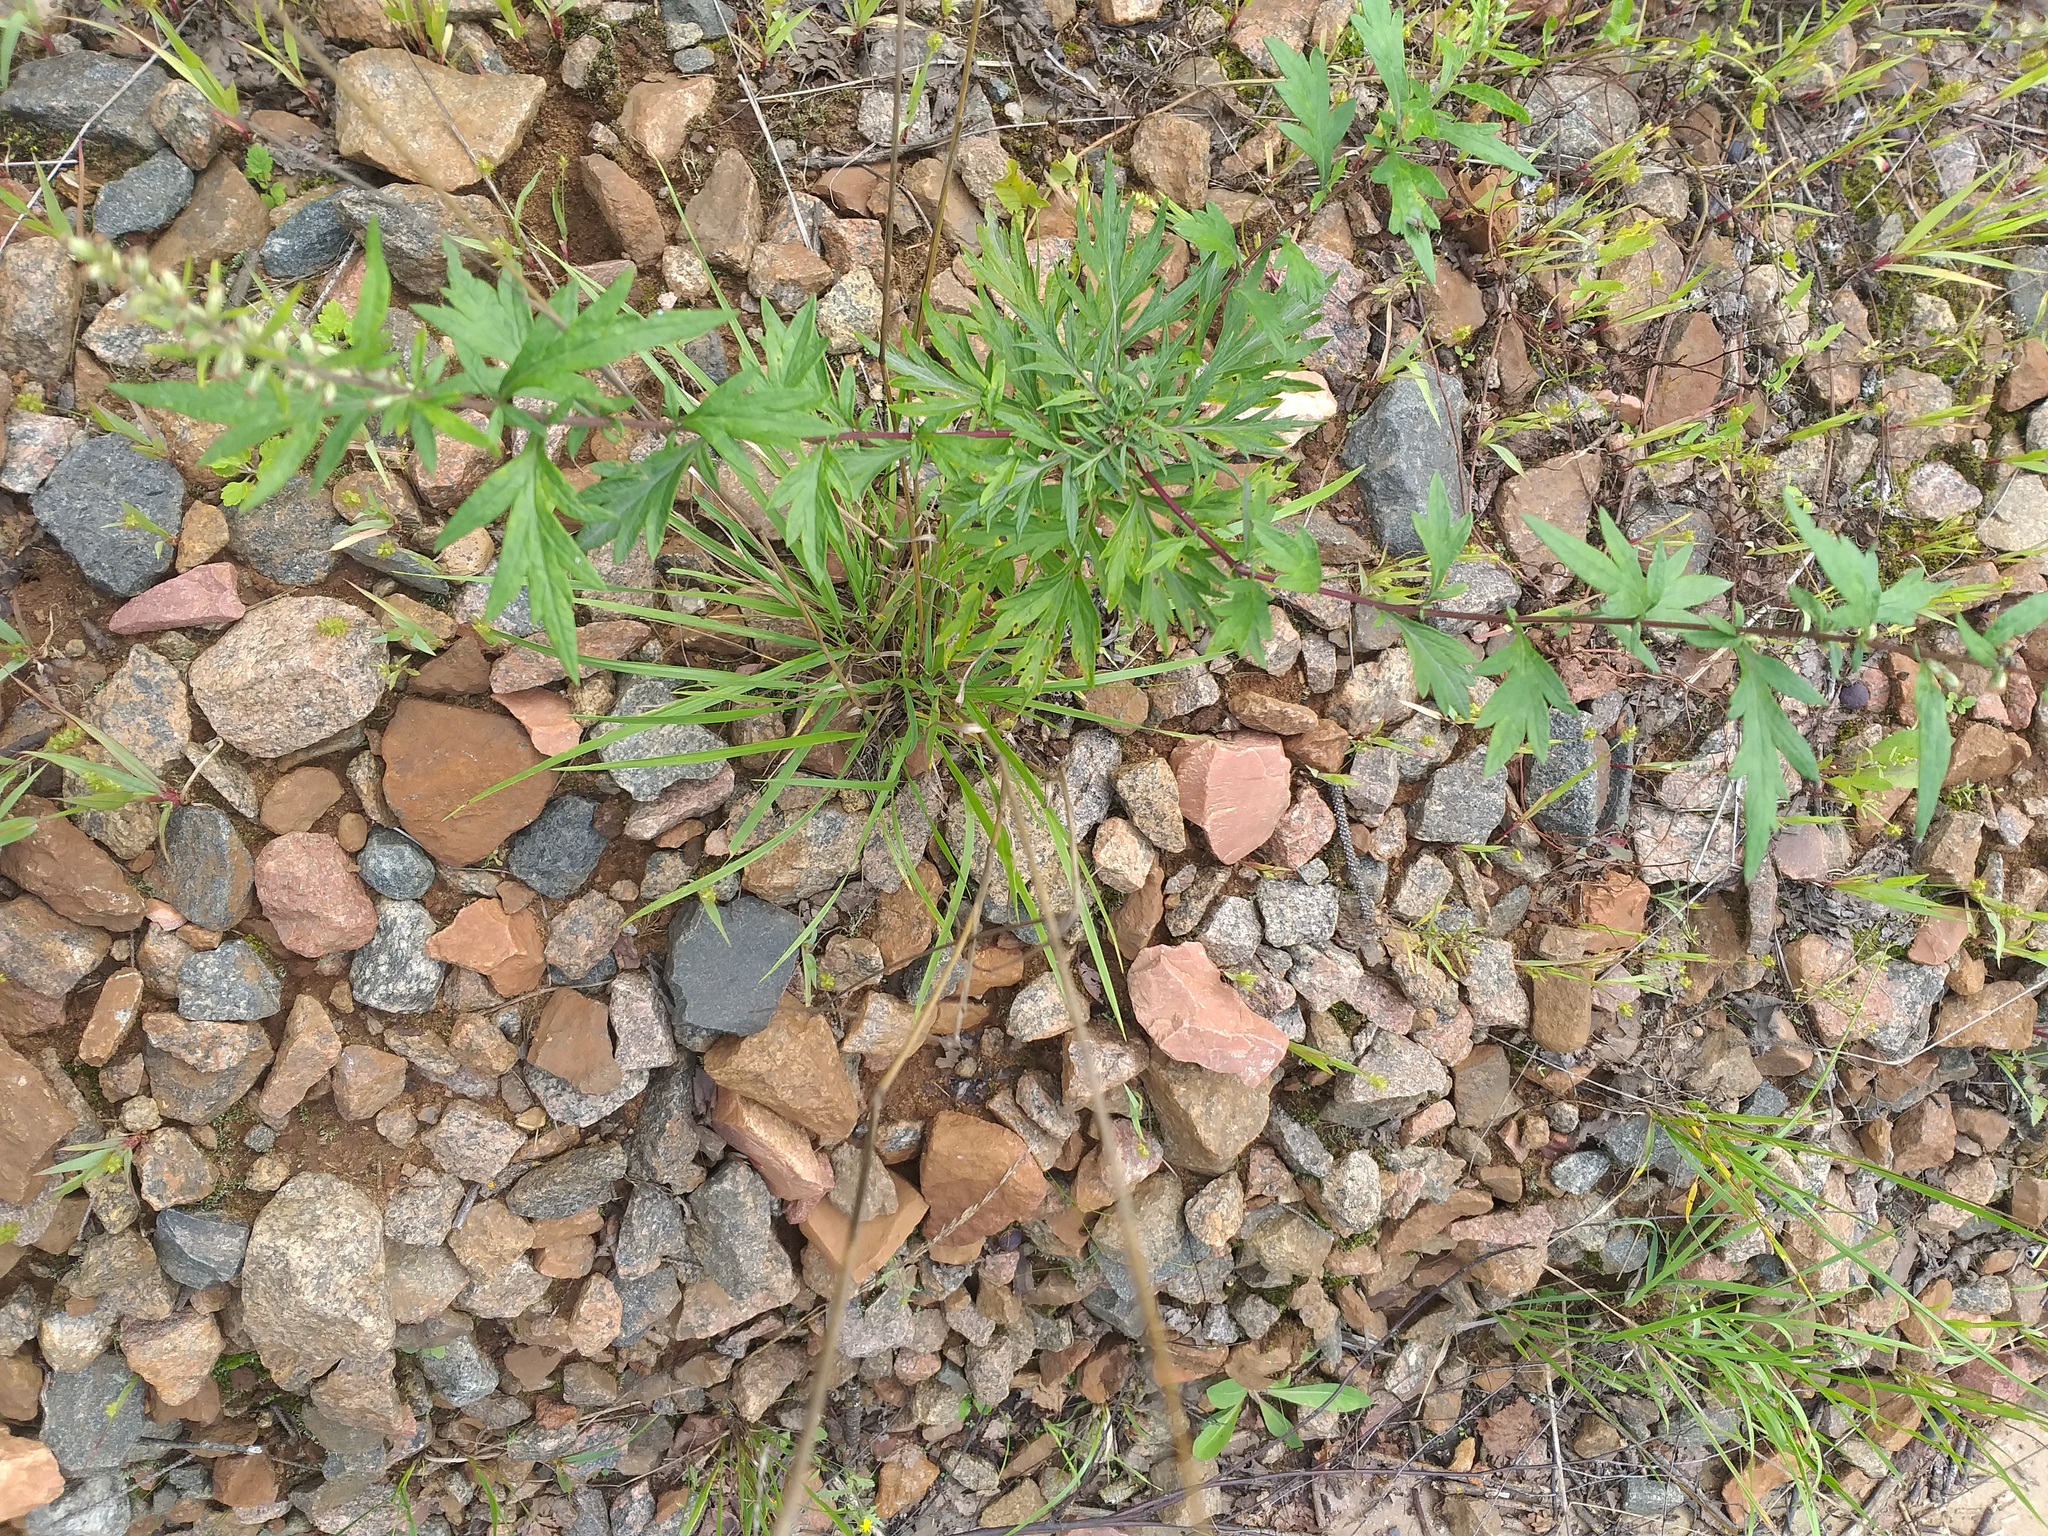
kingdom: Plantae
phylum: Tracheophyta
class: Liliopsida
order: Poales
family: Poaceae
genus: Lolium
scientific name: Lolium pratense
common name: Dover grass
